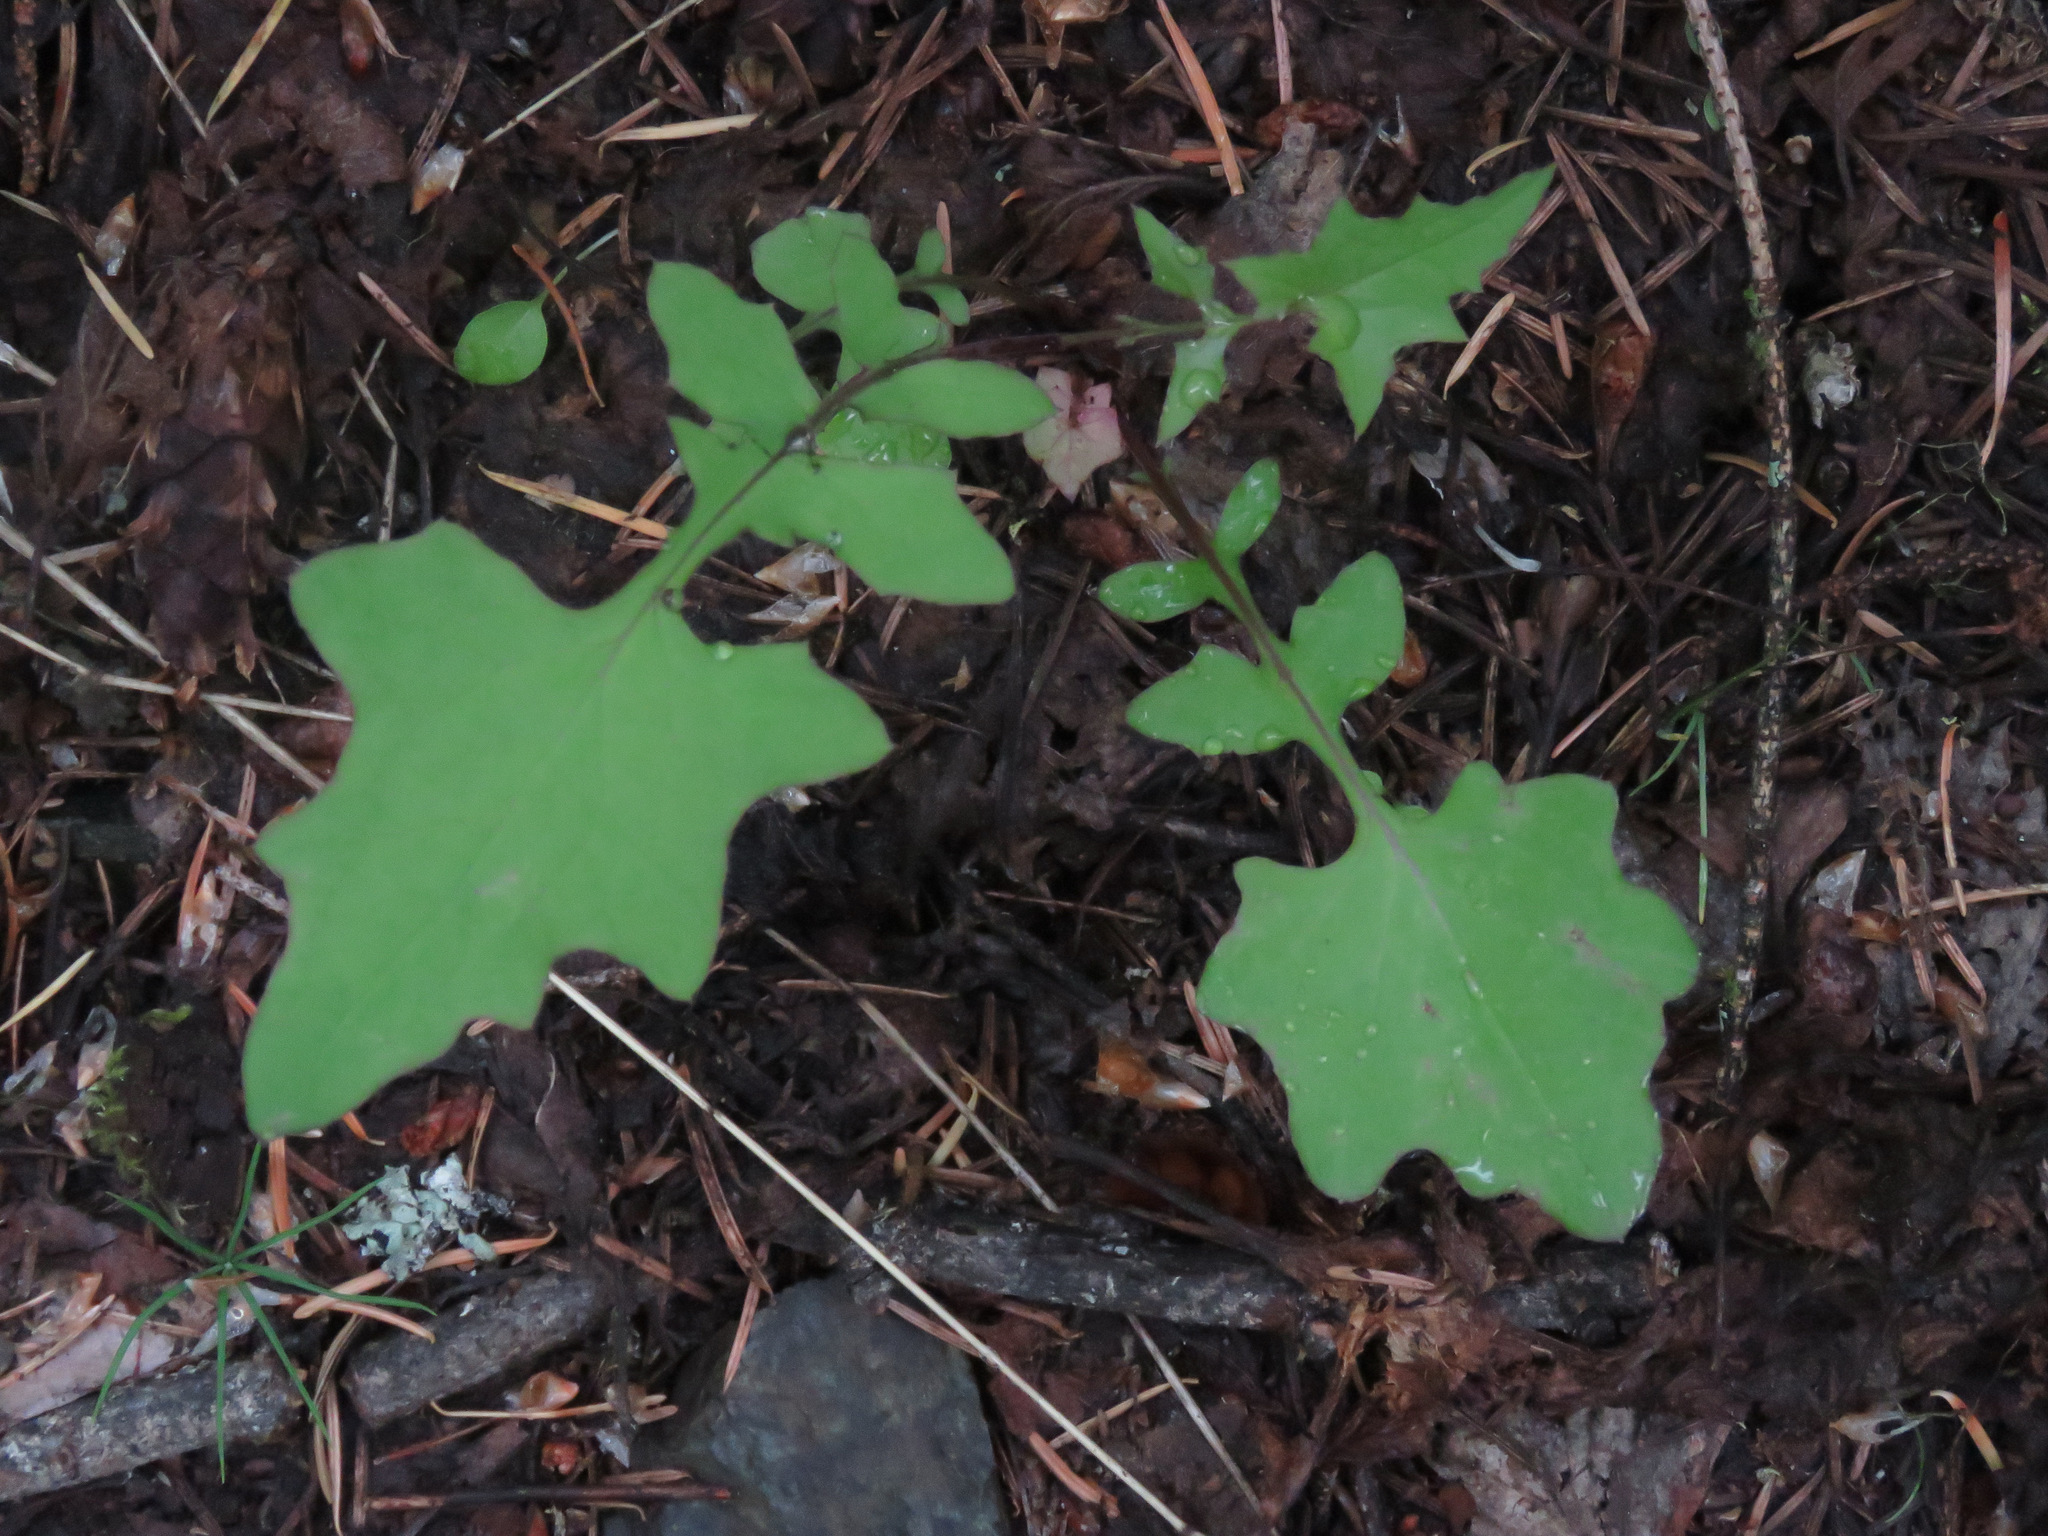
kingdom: Plantae
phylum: Tracheophyta
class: Magnoliopsida
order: Asterales
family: Asteraceae
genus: Mycelis
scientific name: Mycelis muralis
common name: Wall lettuce
